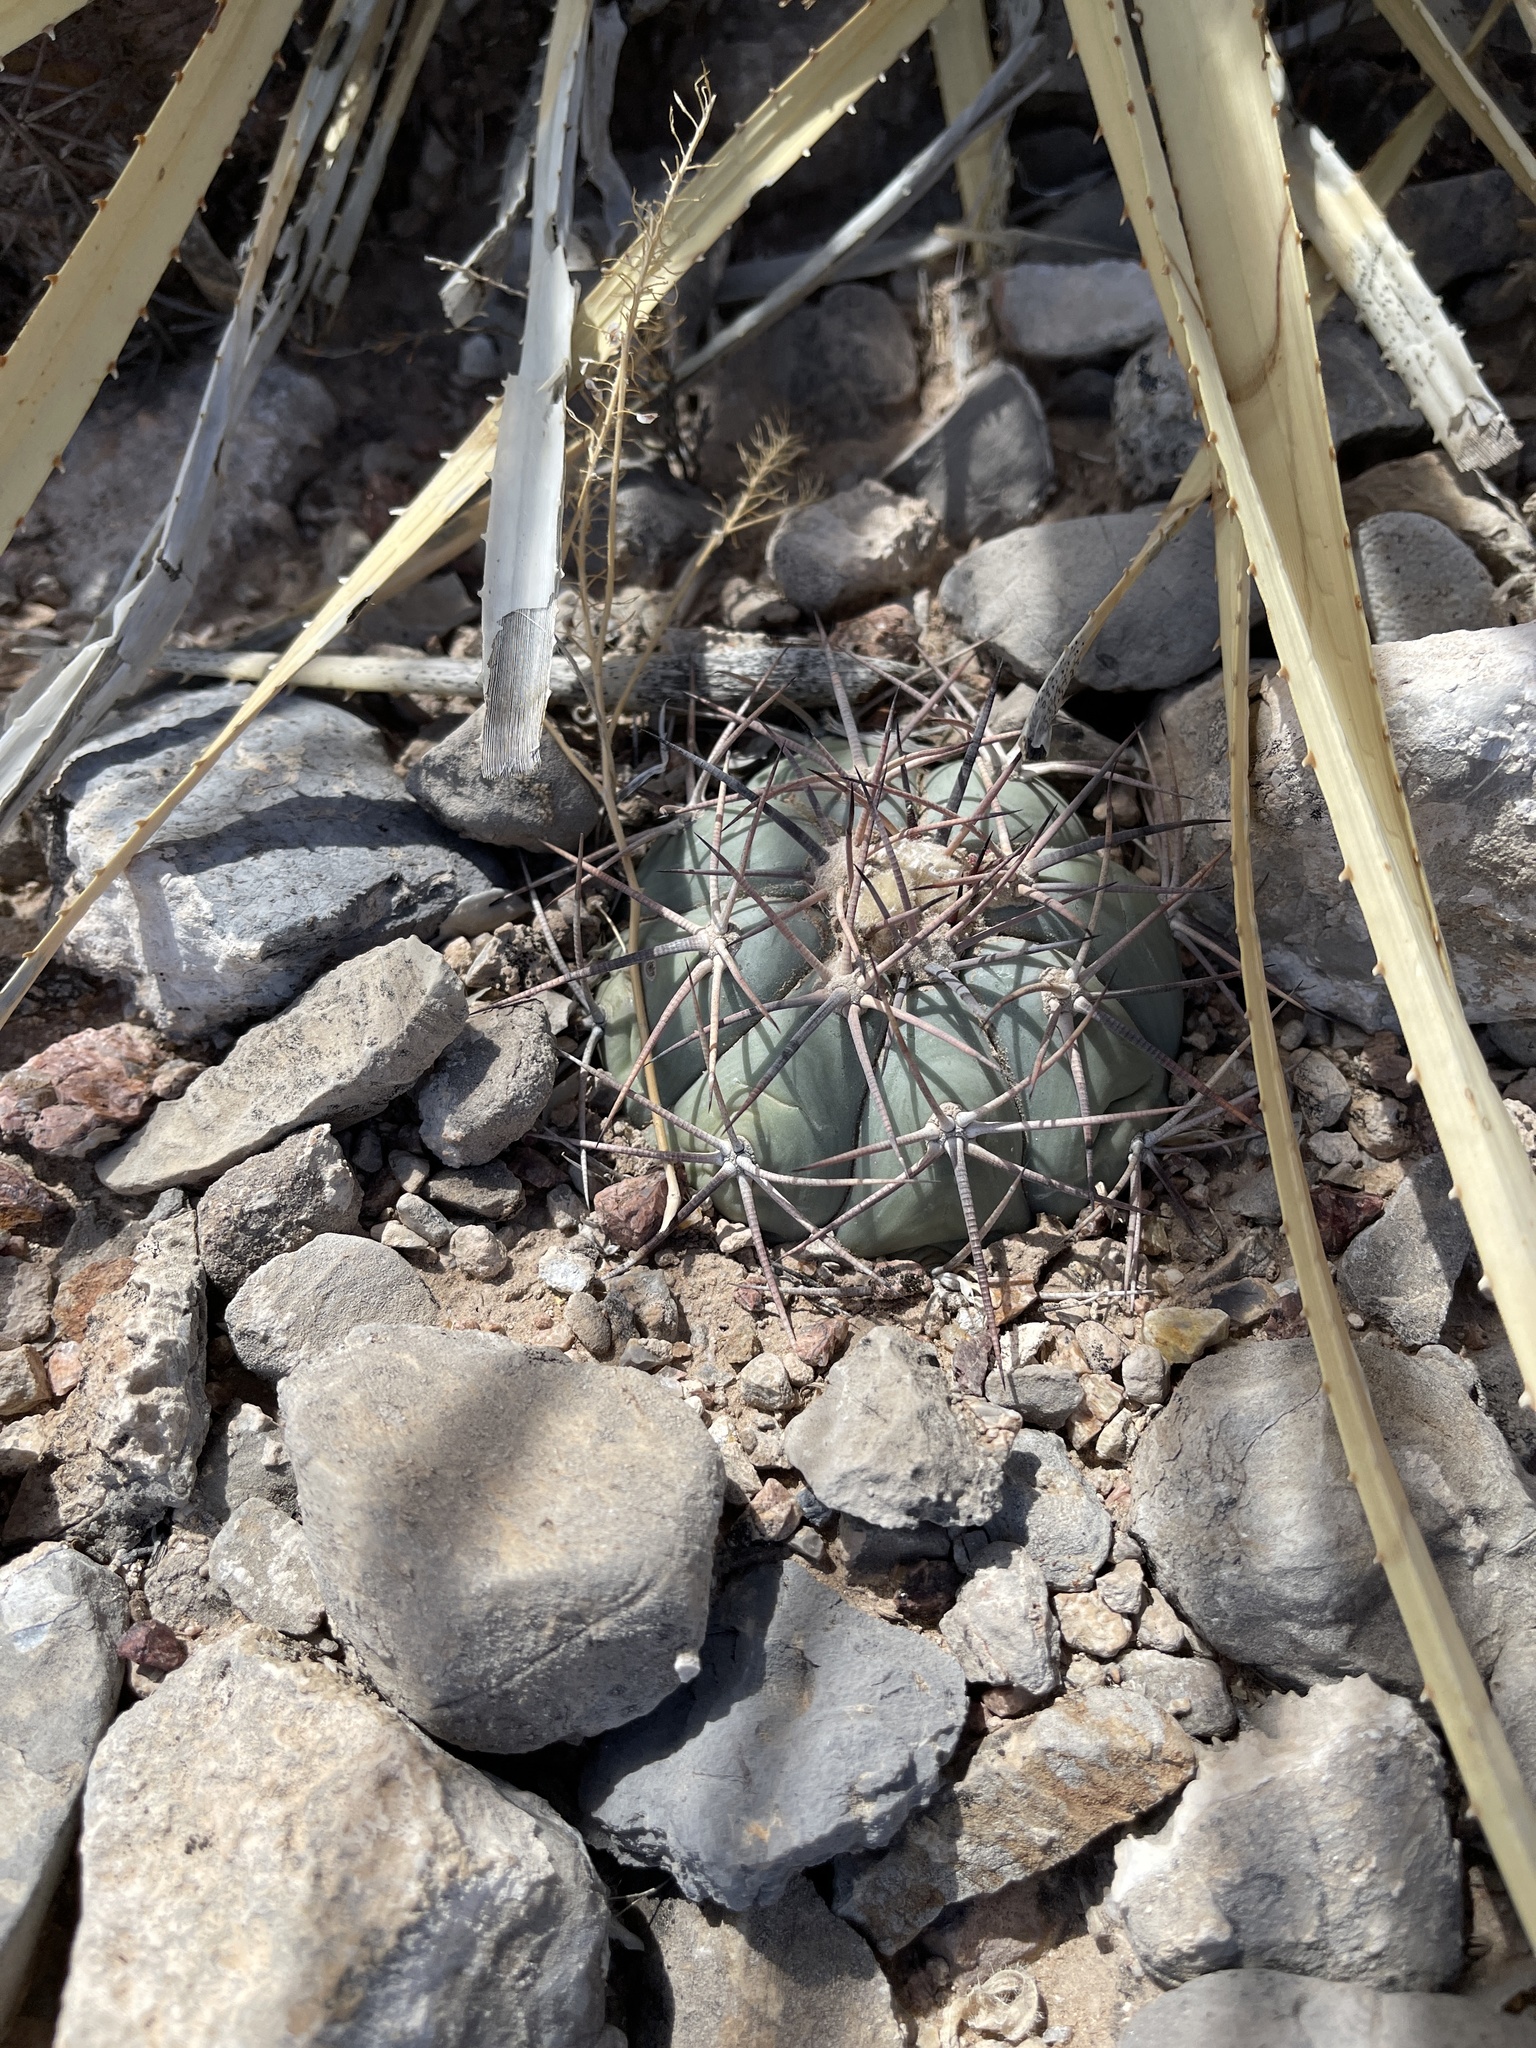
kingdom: Plantae
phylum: Tracheophyta
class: Magnoliopsida
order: Caryophyllales
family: Cactaceae
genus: Echinocactus
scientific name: Echinocactus horizonthalonius
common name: Devilshead
